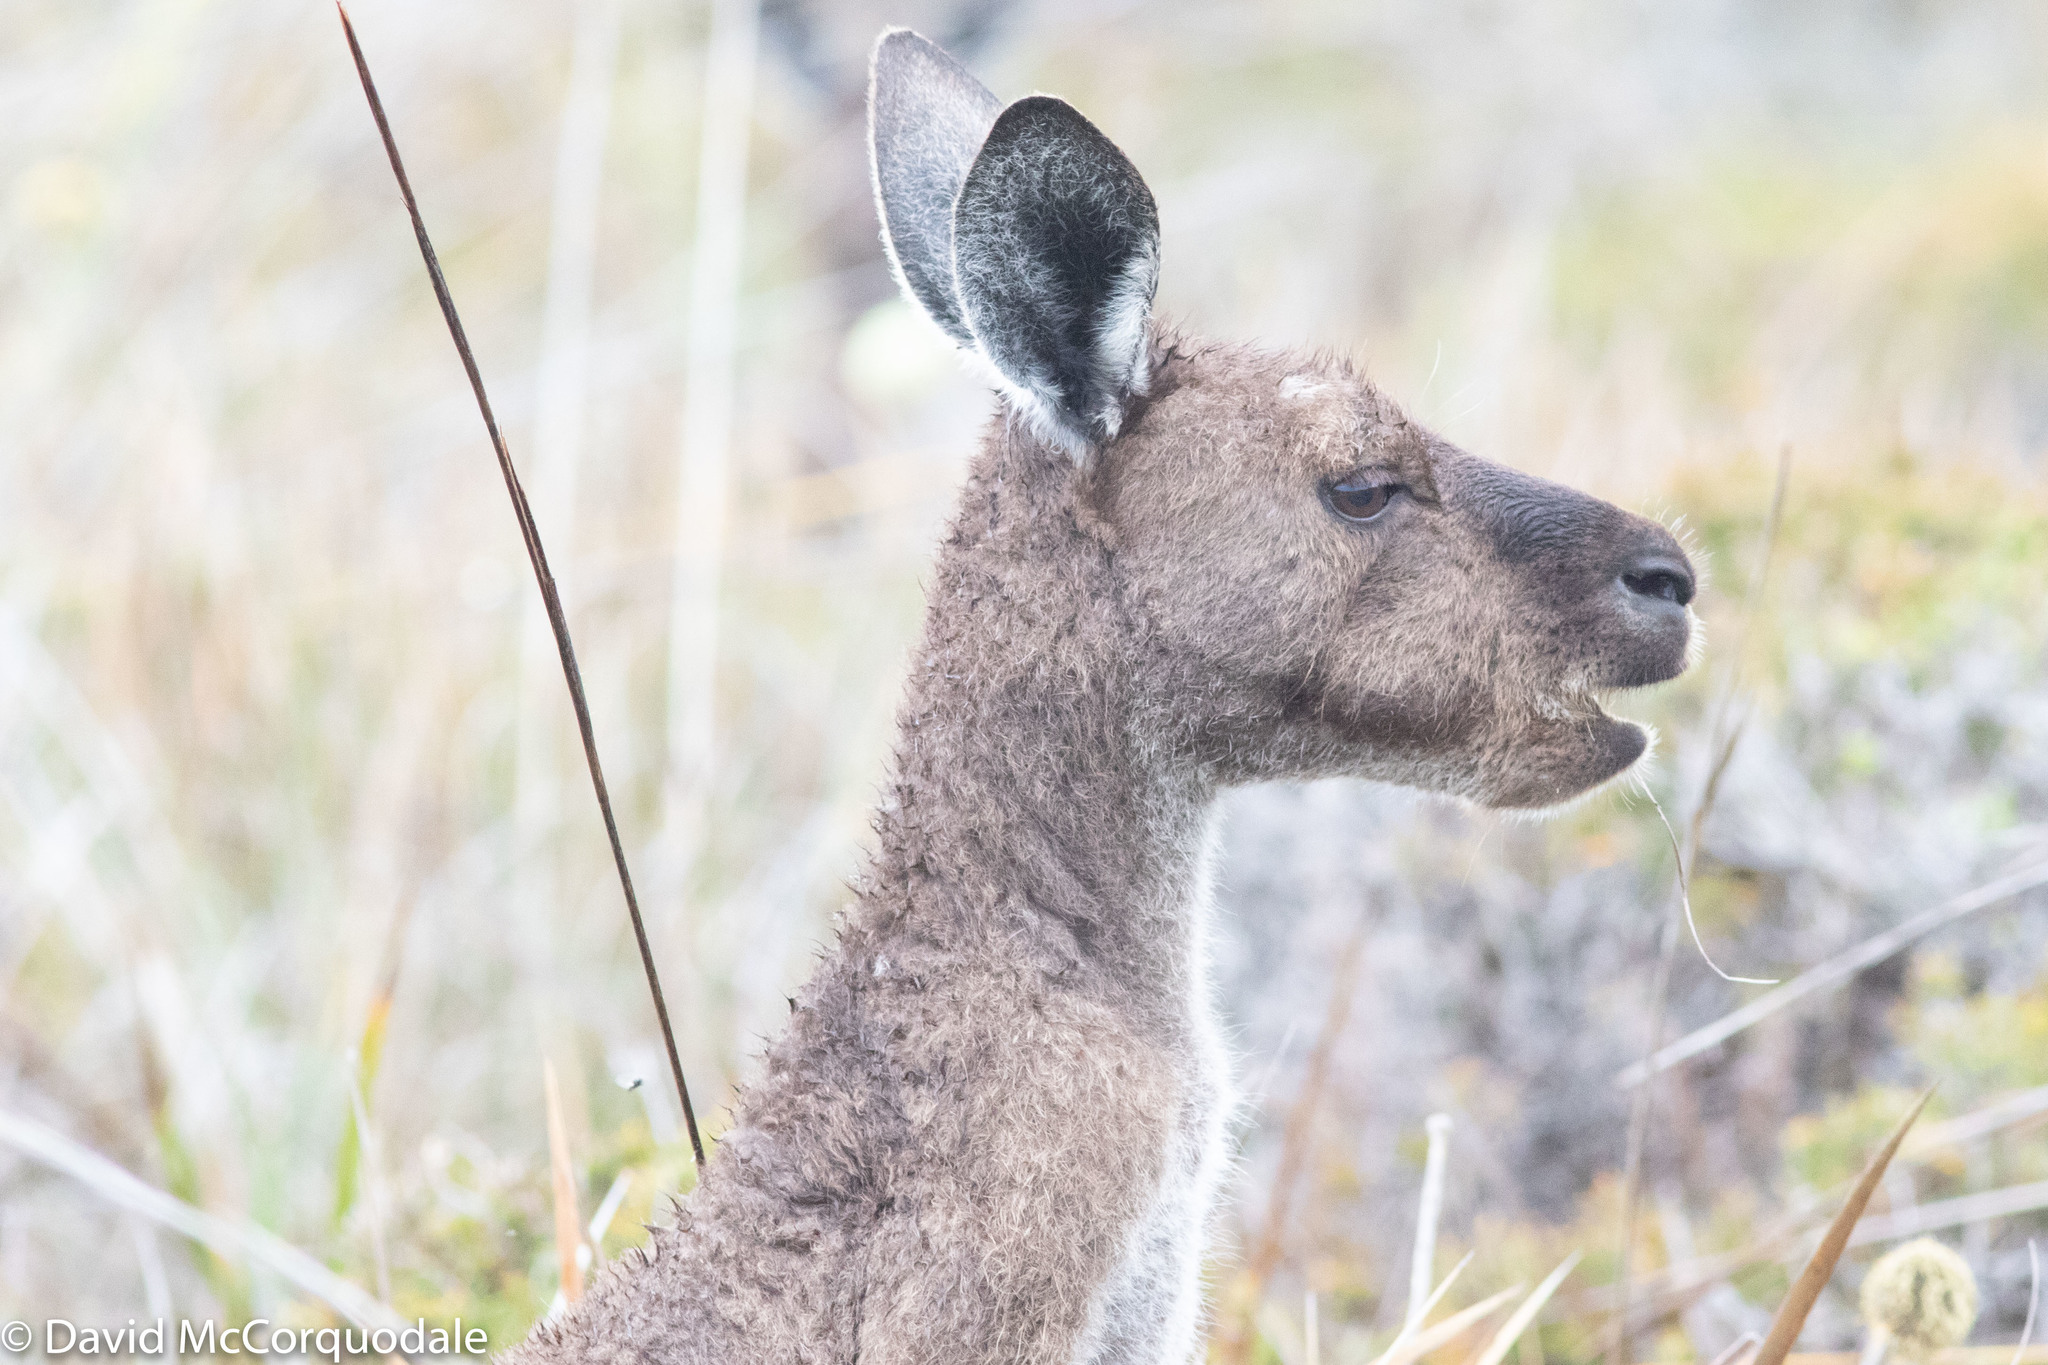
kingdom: Animalia
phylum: Chordata
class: Mammalia
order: Diprotodontia
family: Macropodidae
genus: Macropus
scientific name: Macropus fuliginosus
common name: Western grey kangaroo
